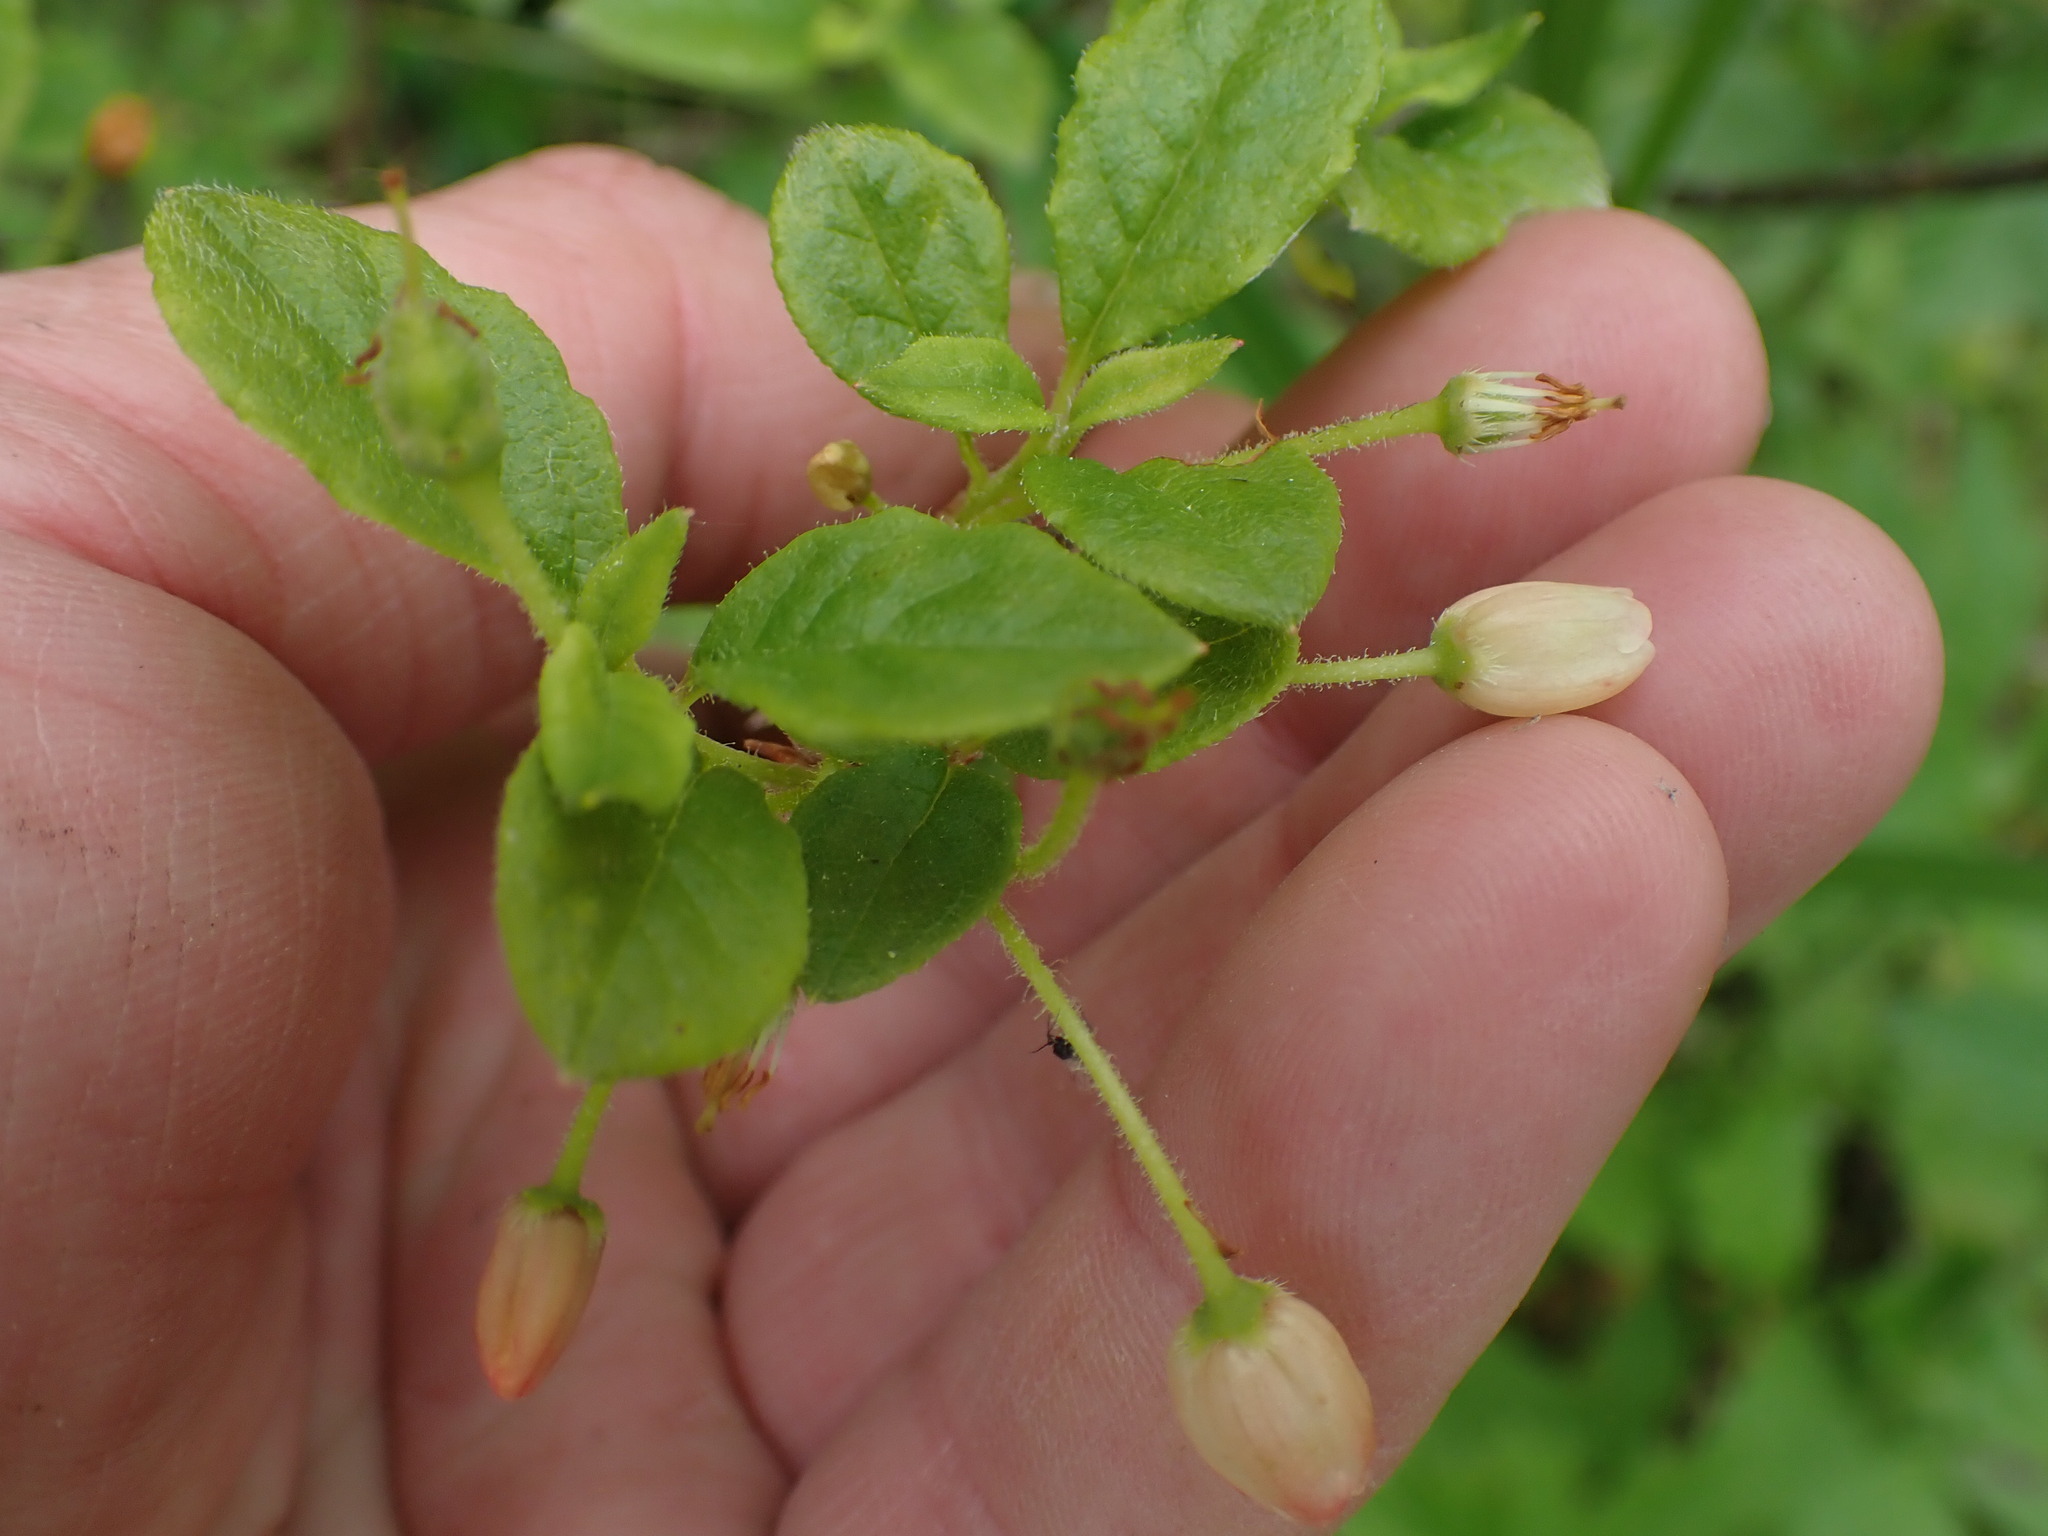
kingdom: Plantae
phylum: Tracheophyta
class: Magnoliopsida
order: Ericales
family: Ericaceae
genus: Rhododendron
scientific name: Rhododendron menziesii
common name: Pacific menziesia
